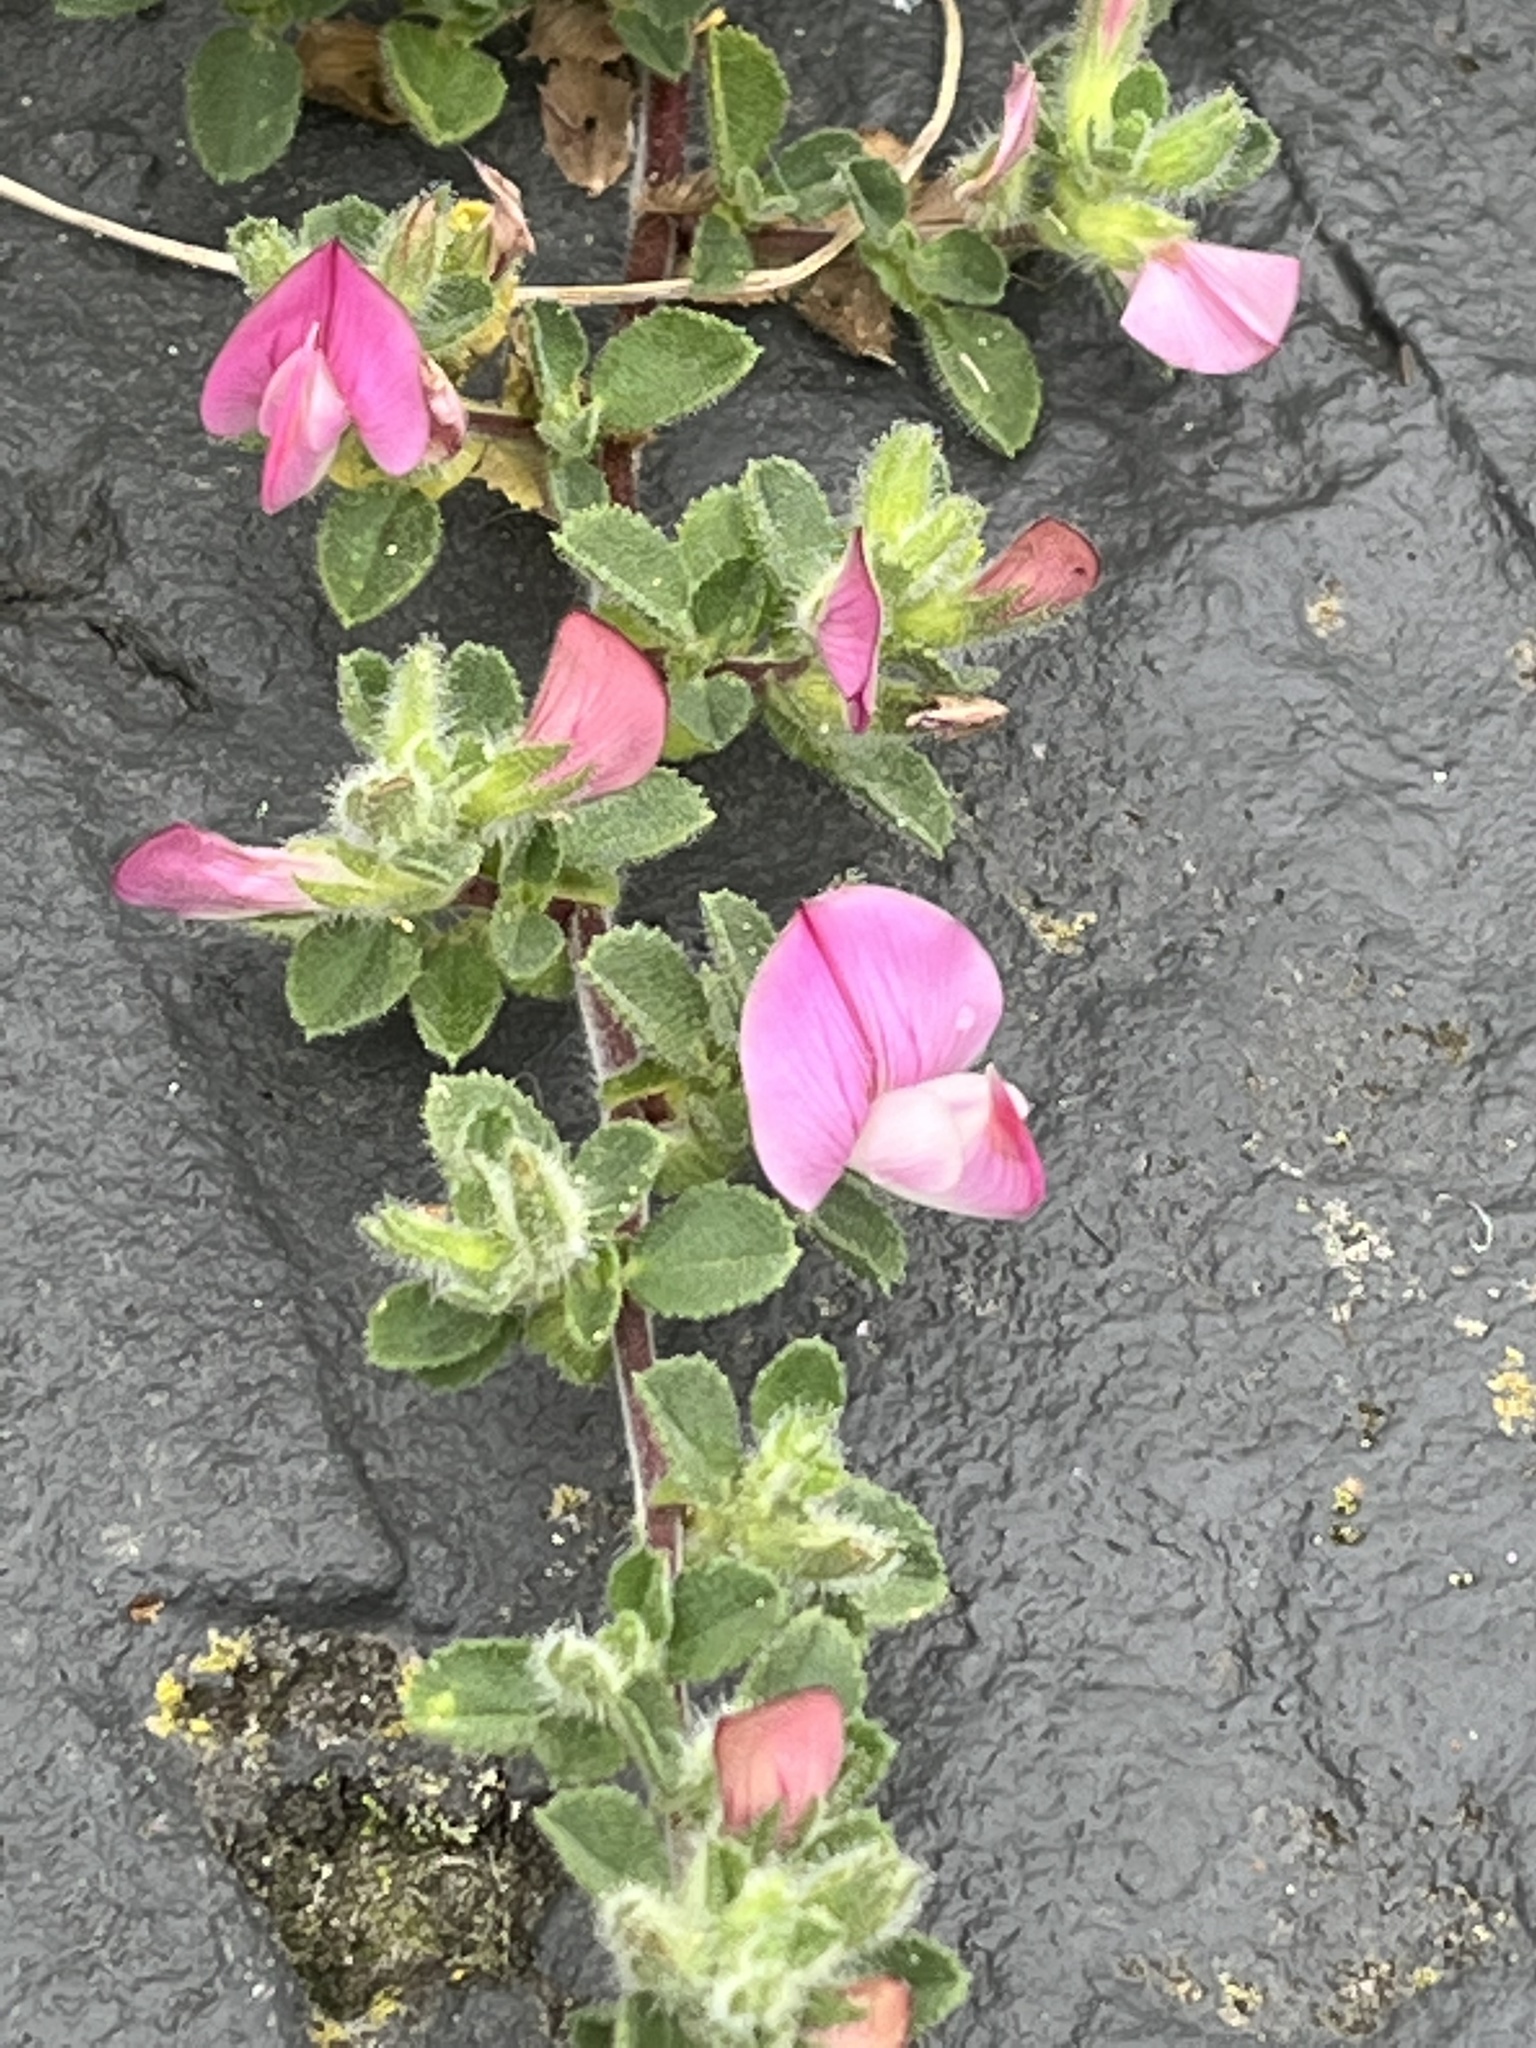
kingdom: Plantae
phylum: Tracheophyta
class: Magnoliopsida
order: Fabales
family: Fabaceae
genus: Ononis
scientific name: Ononis spinosa
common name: Spiny restharrow
